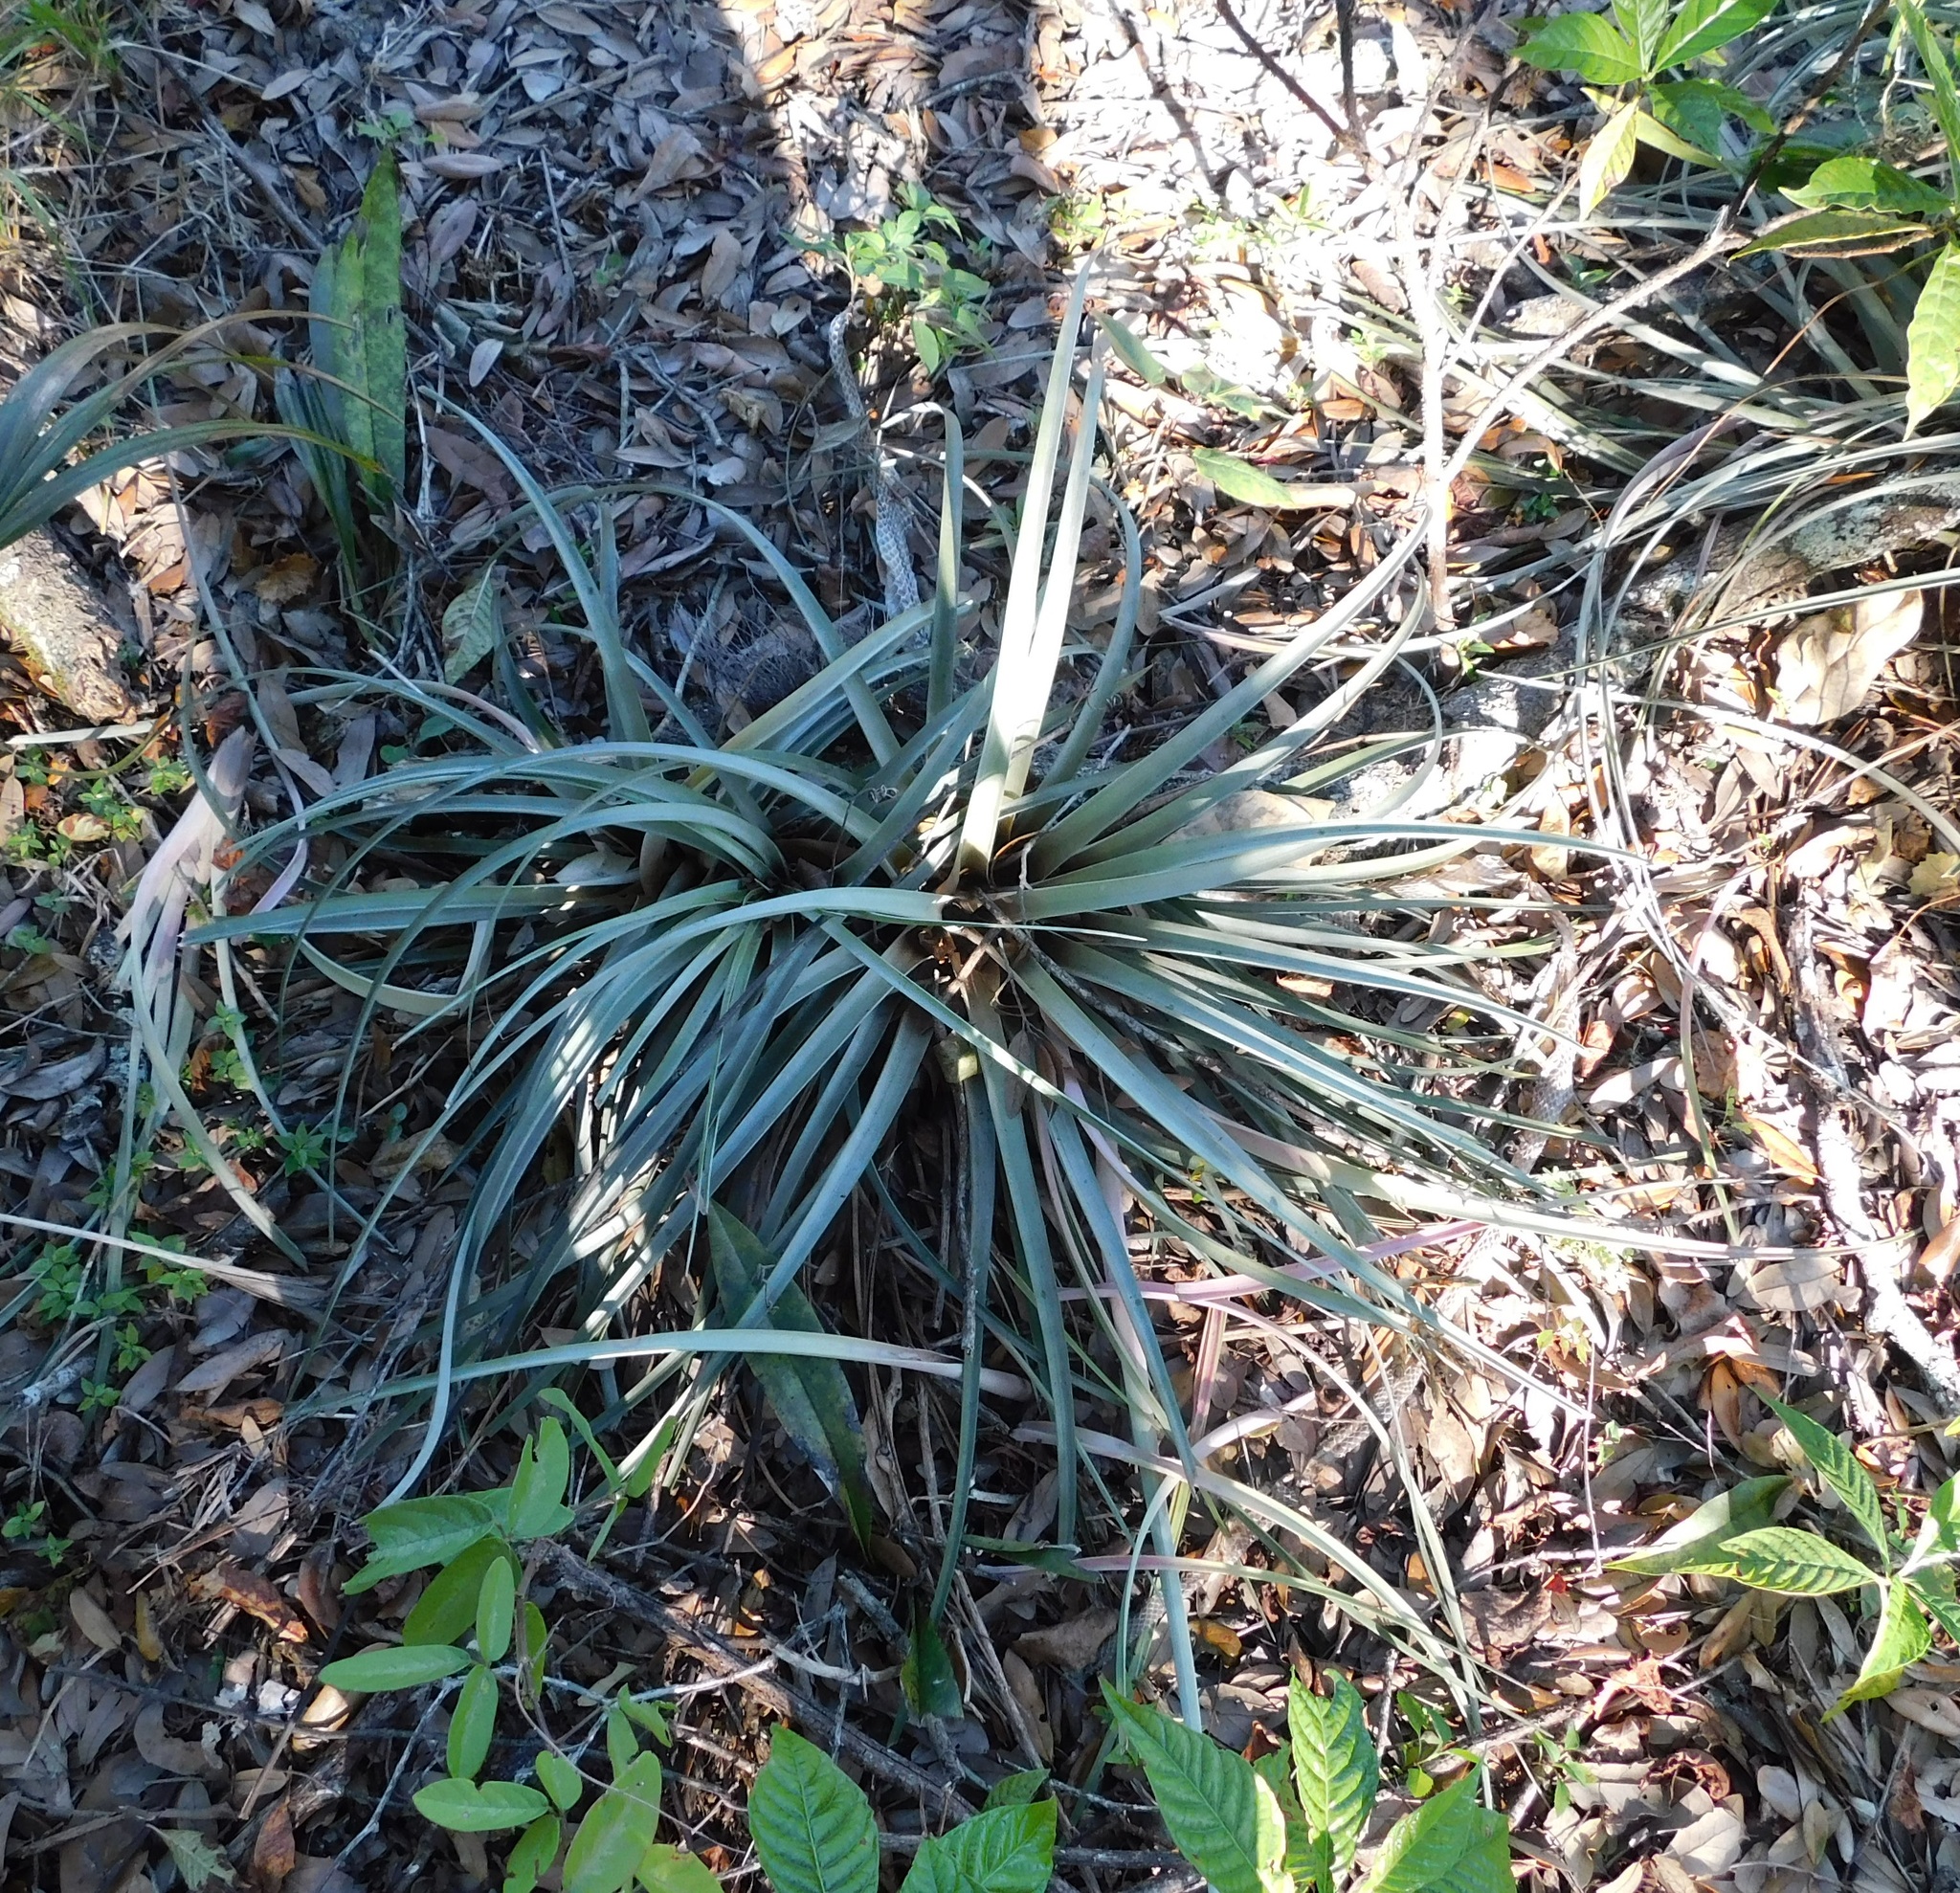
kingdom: Plantae
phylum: Tracheophyta
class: Liliopsida
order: Poales
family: Bromeliaceae
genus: Tillandsia
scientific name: Tillandsia fasciculata
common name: Giant airplant
